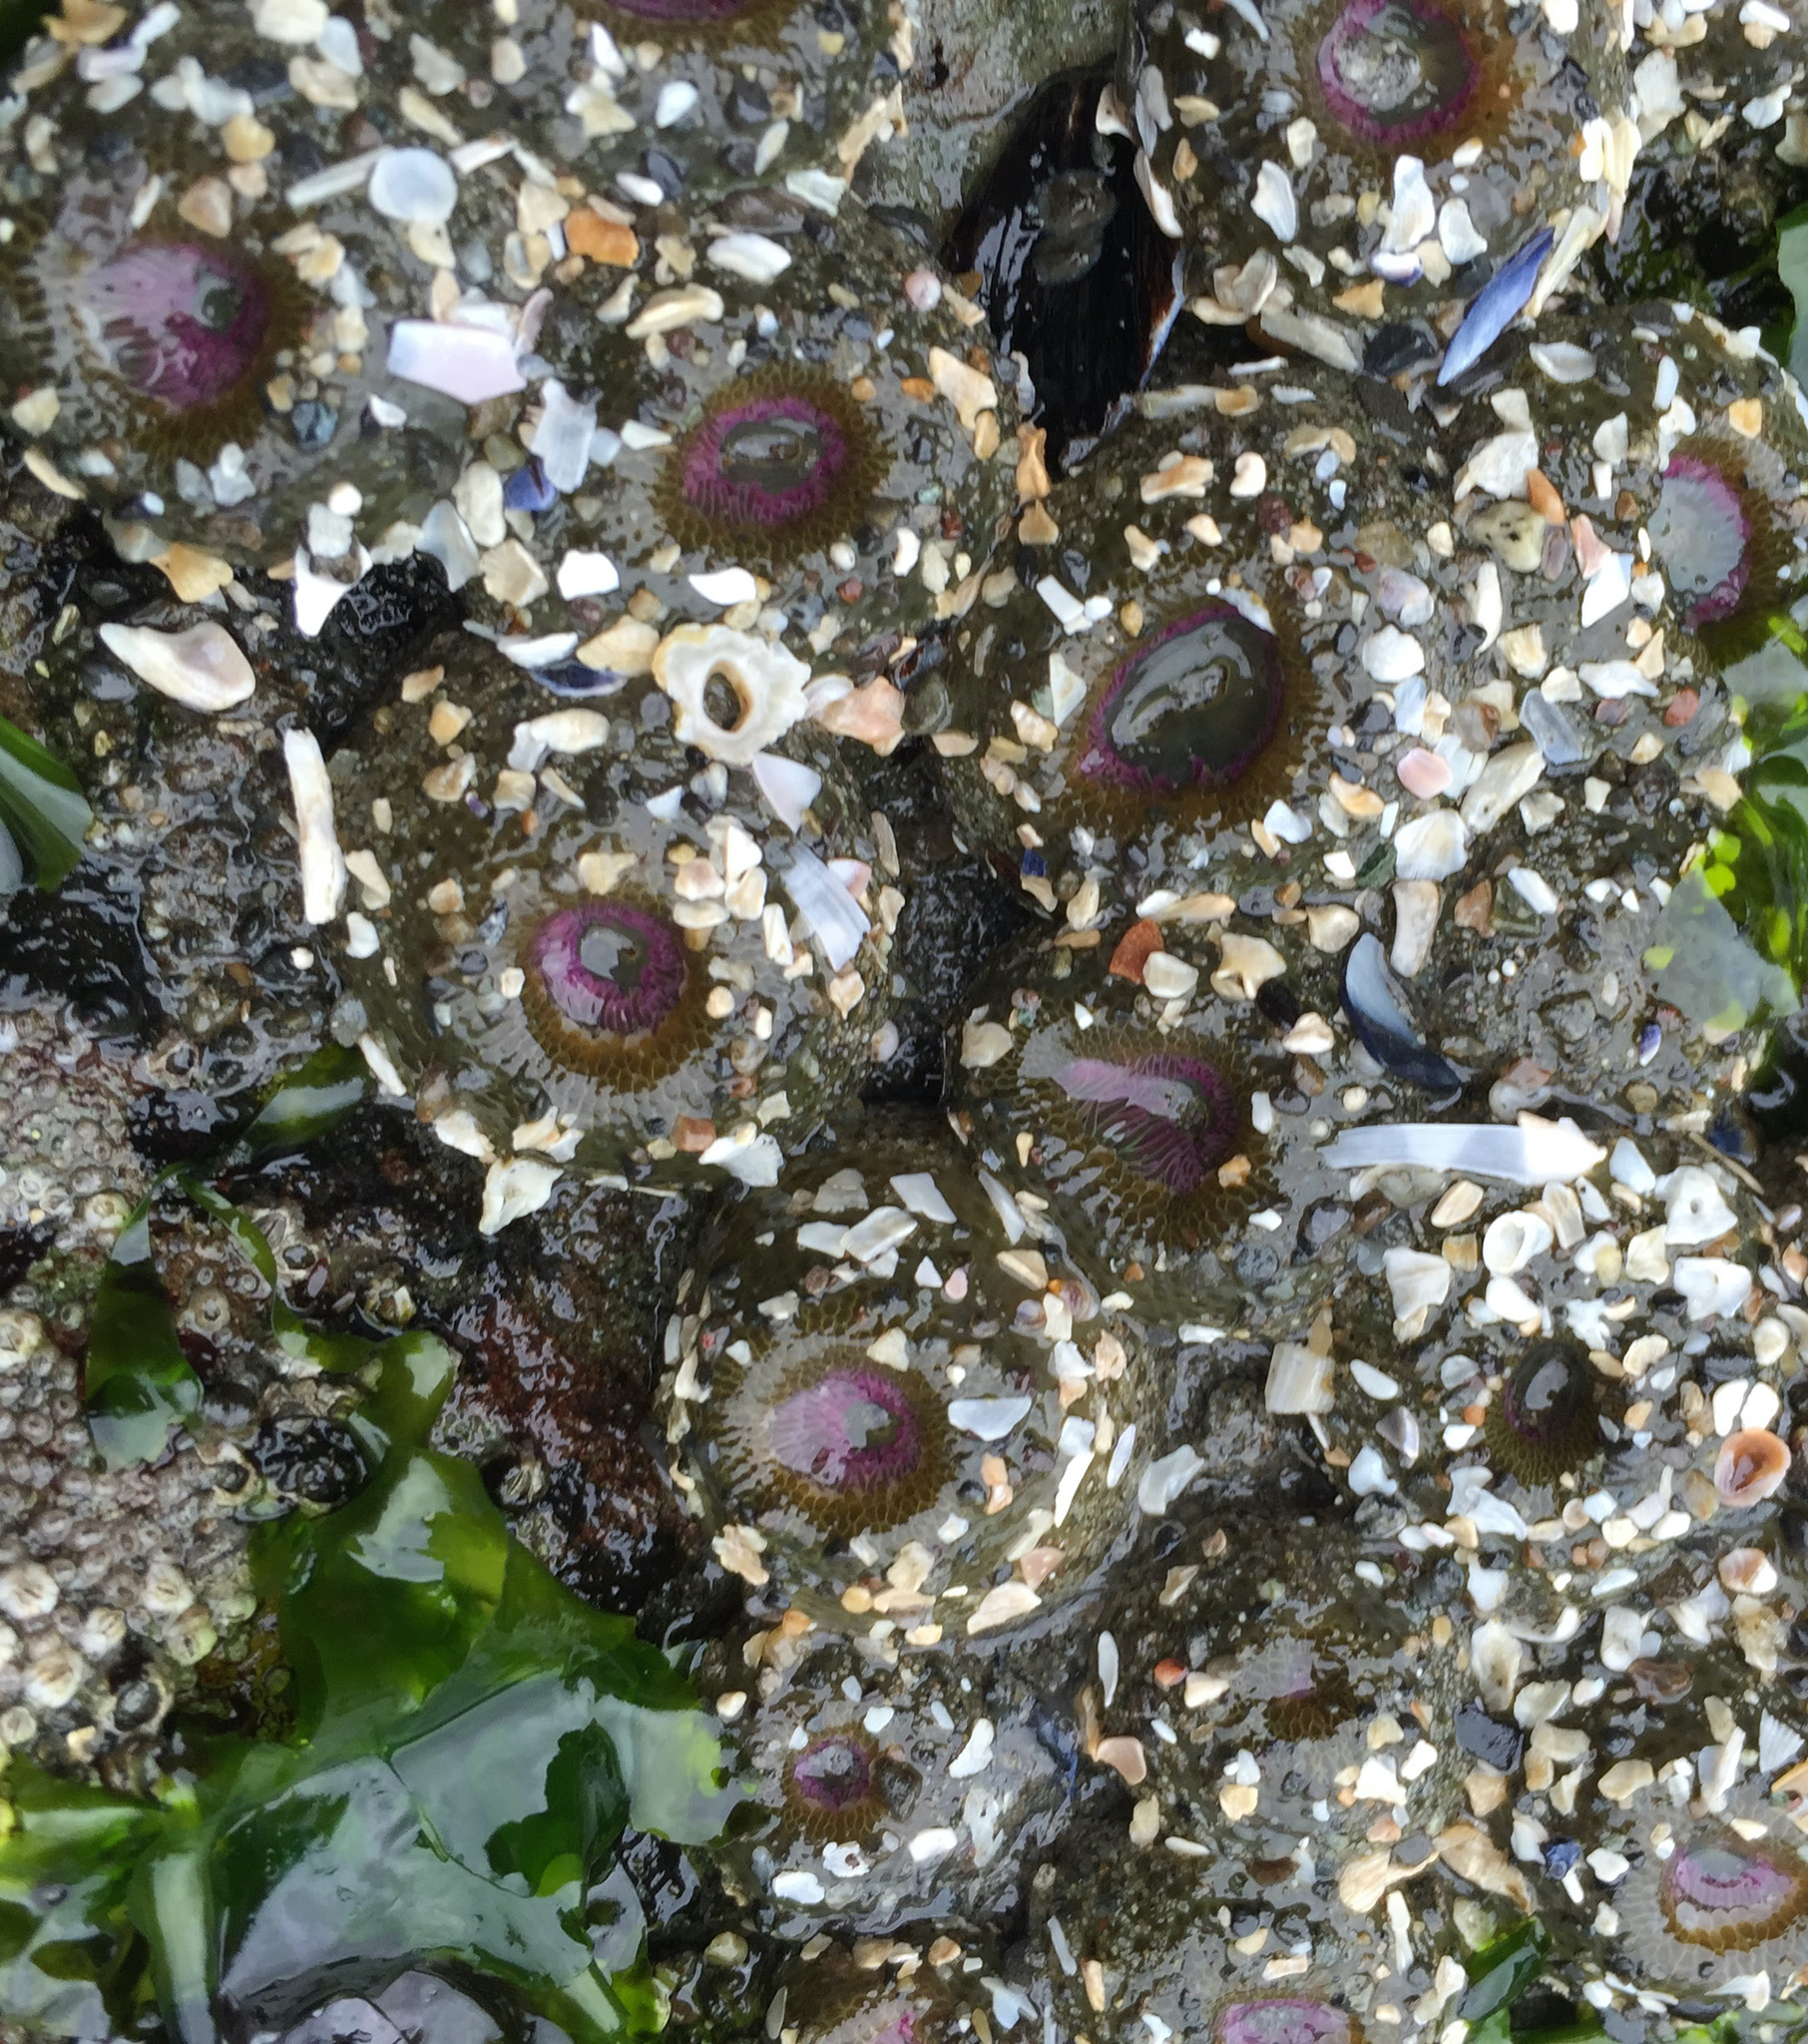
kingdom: Animalia
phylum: Cnidaria
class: Anthozoa
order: Actiniaria
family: Actiniidae
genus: Anthopleura
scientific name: Anthopleura elegantissima
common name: Clonal anemone
